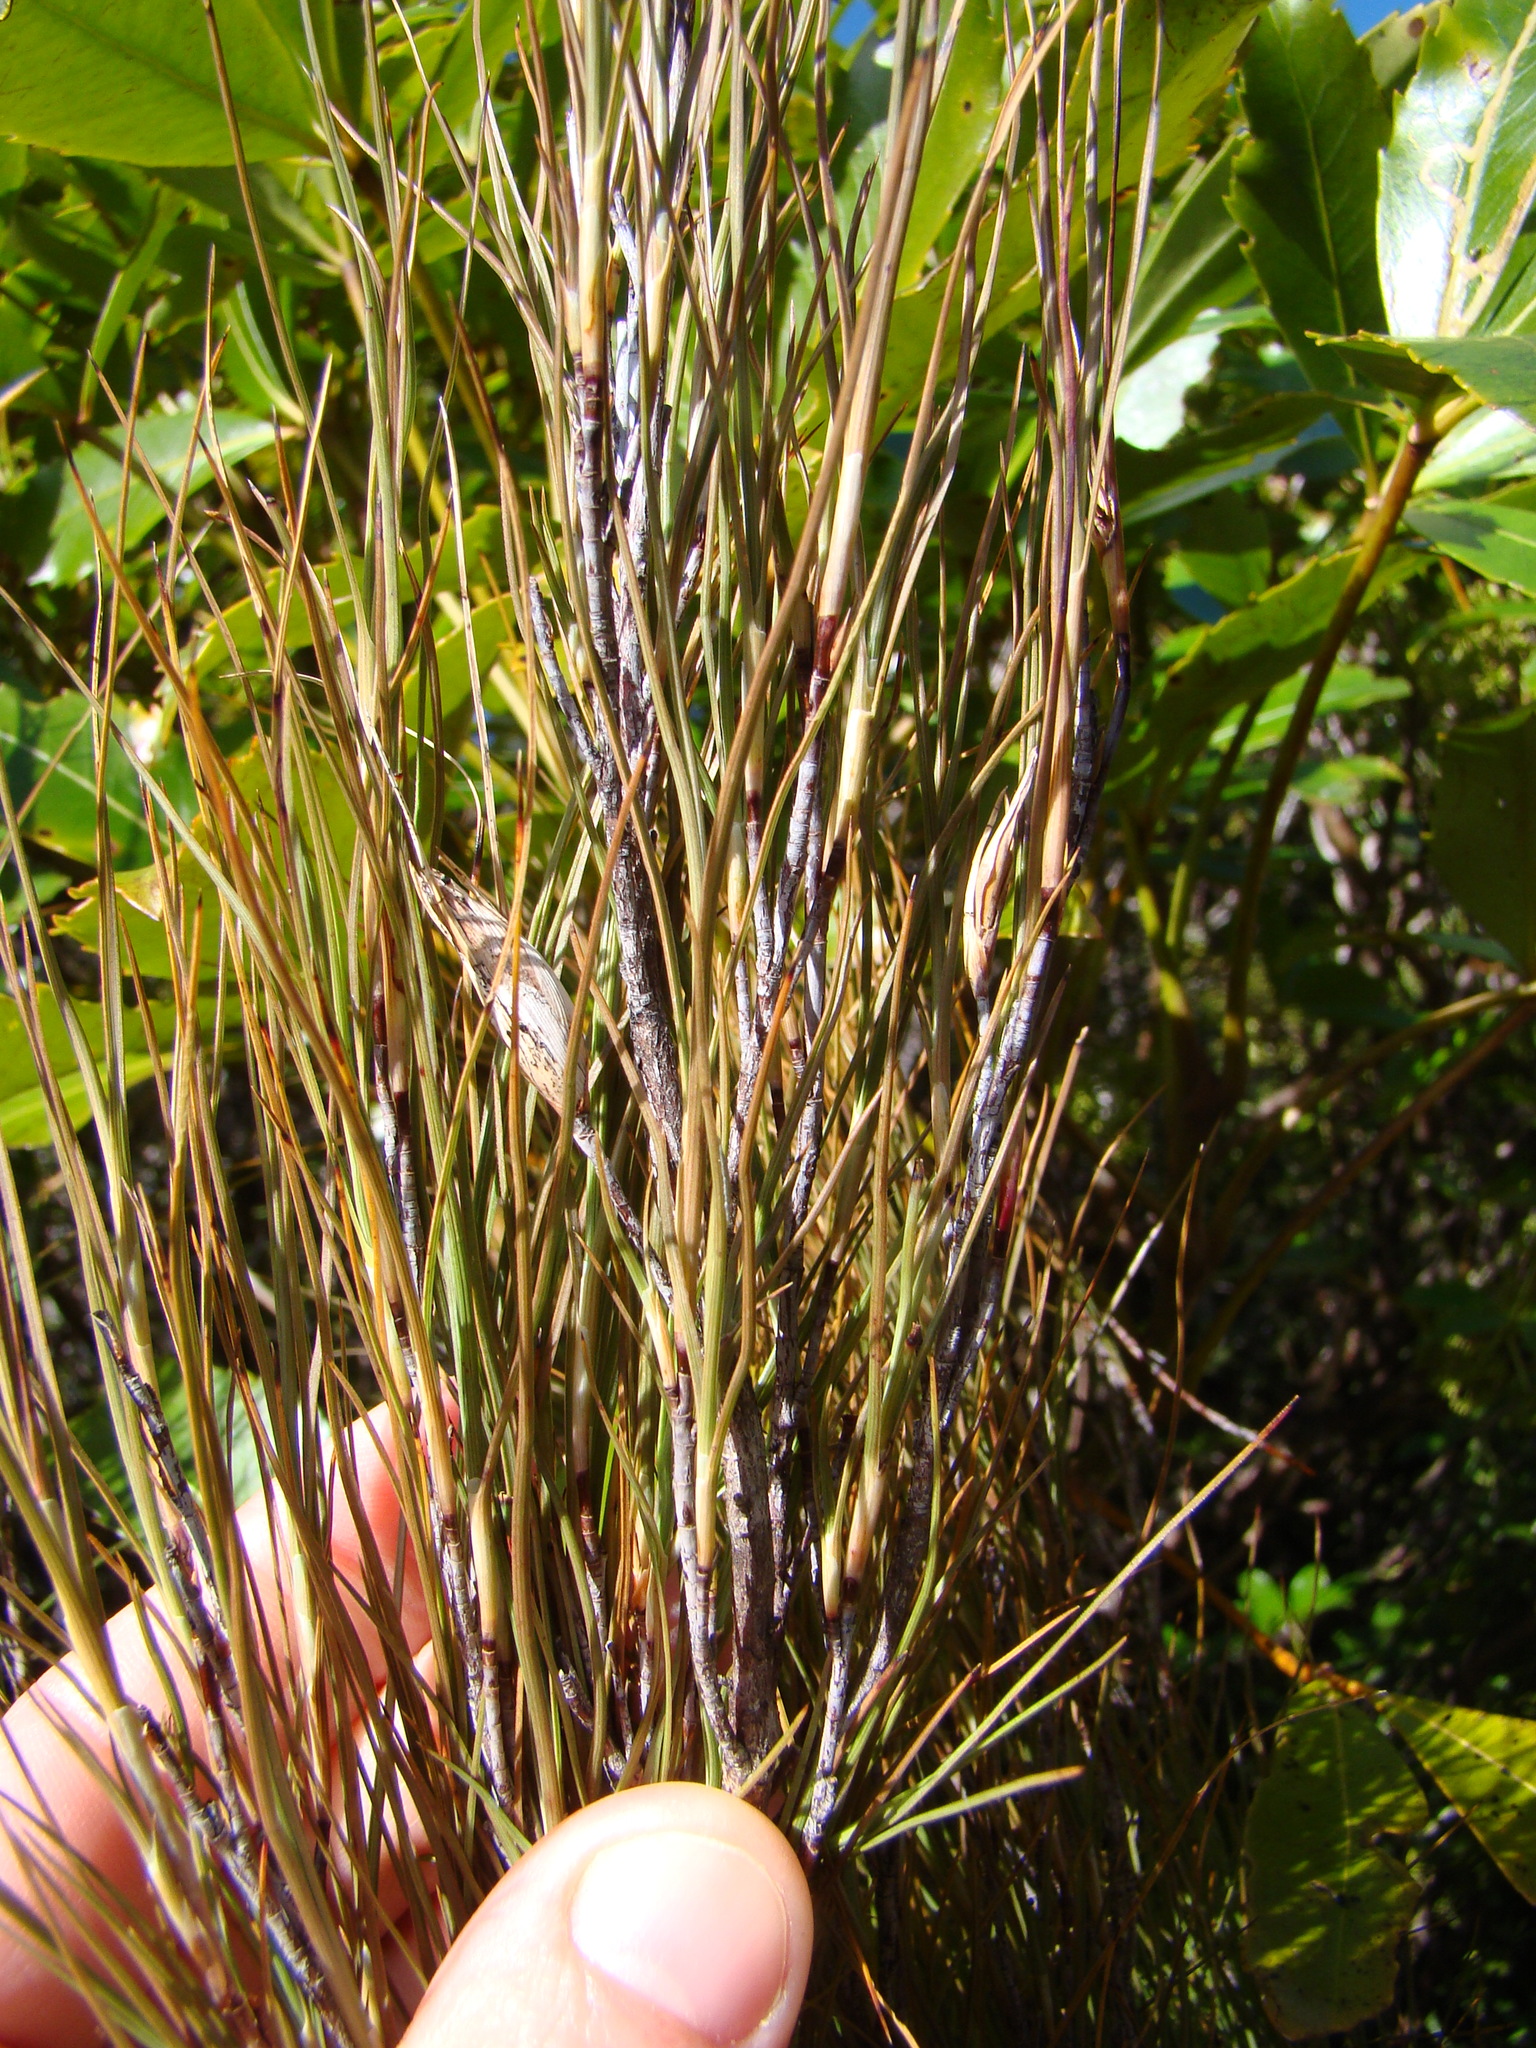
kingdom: Plantae
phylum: Tracheophyta
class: Magnoliopsida
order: Ericales
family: Ericaceae
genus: Dracophyllum
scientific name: Dracophyllum filifolium
